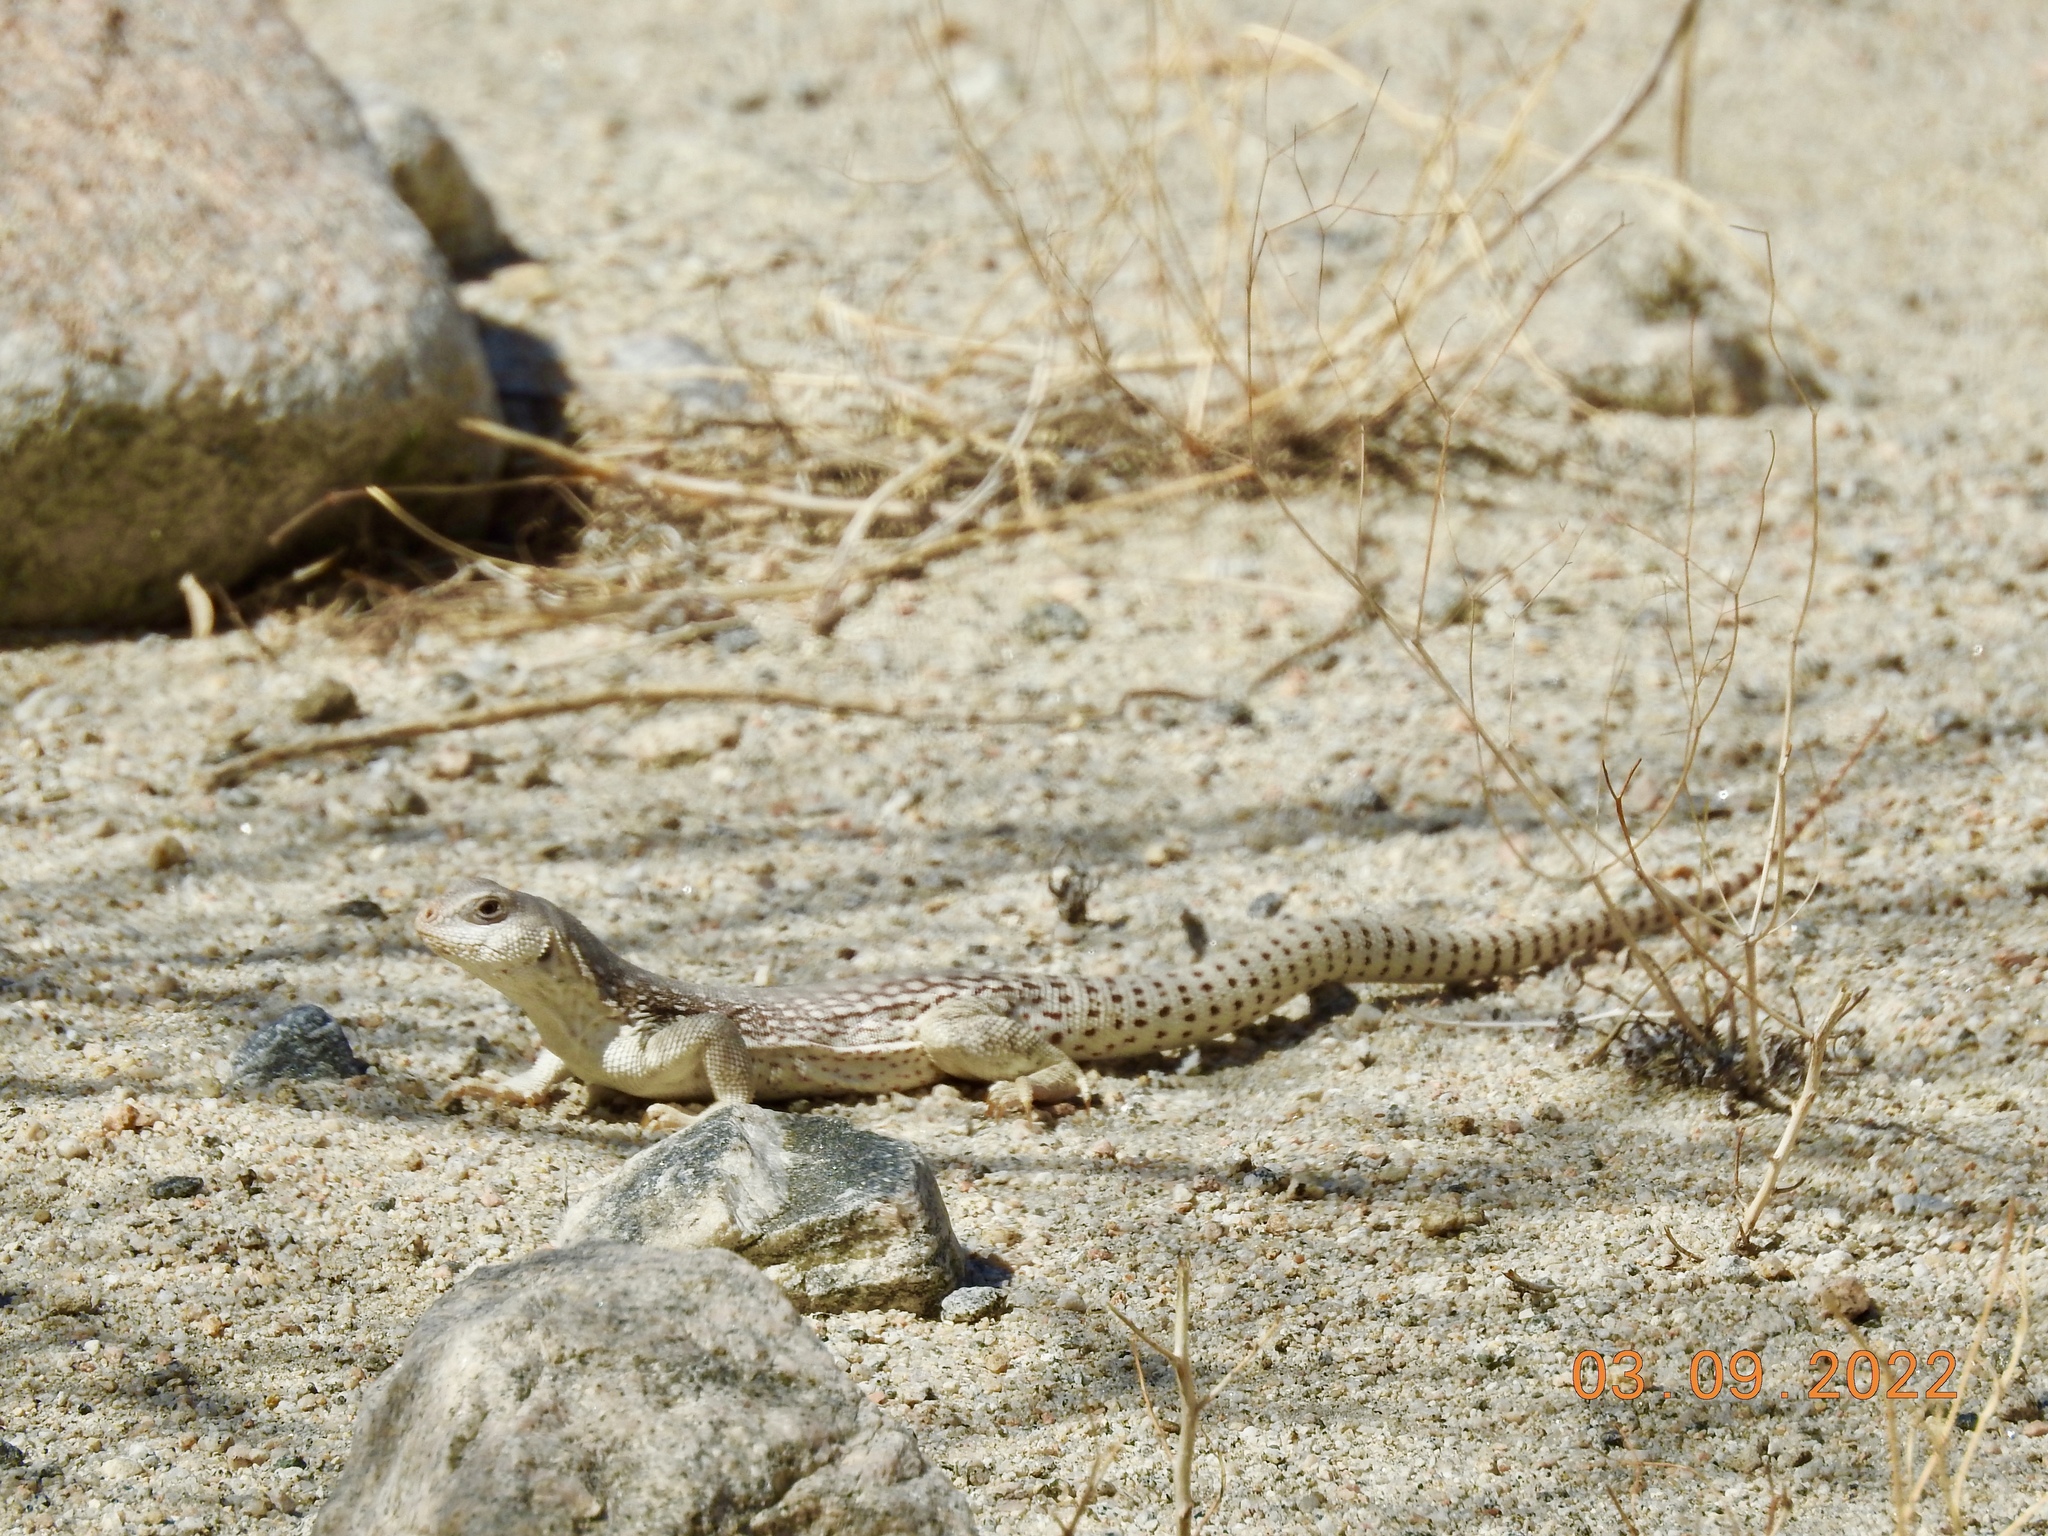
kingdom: Animalia
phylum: Chordata
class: Squamata
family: Iguanidae
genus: Dipsosaurus
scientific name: Dipsosaurus dorsalis
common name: Desert iguana
